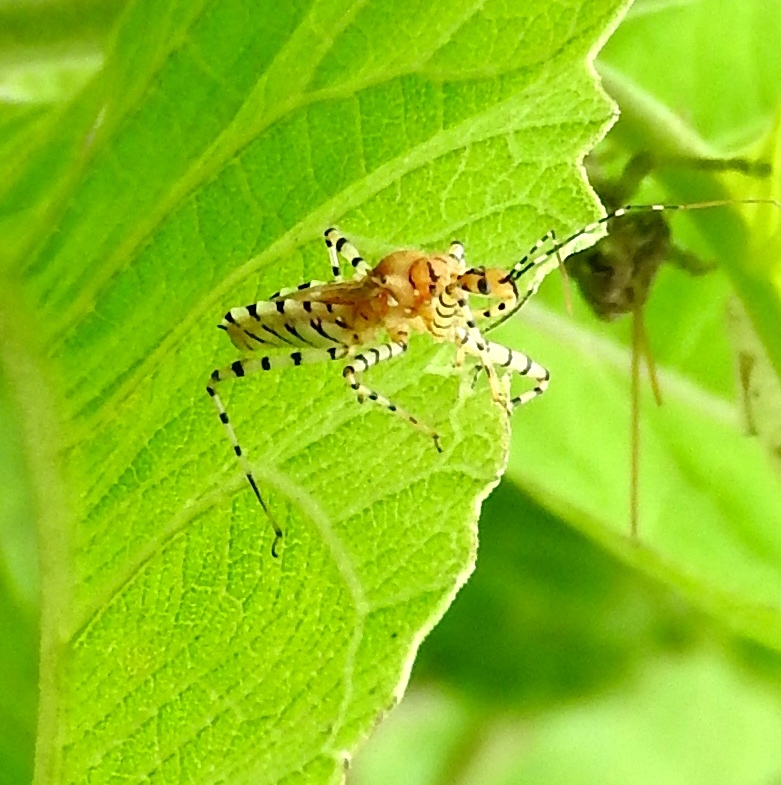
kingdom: Animalia
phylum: Arthropoda
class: Insecta
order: Hemiptera
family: Reduviidae
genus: Pselliopus
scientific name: Pselliopus
